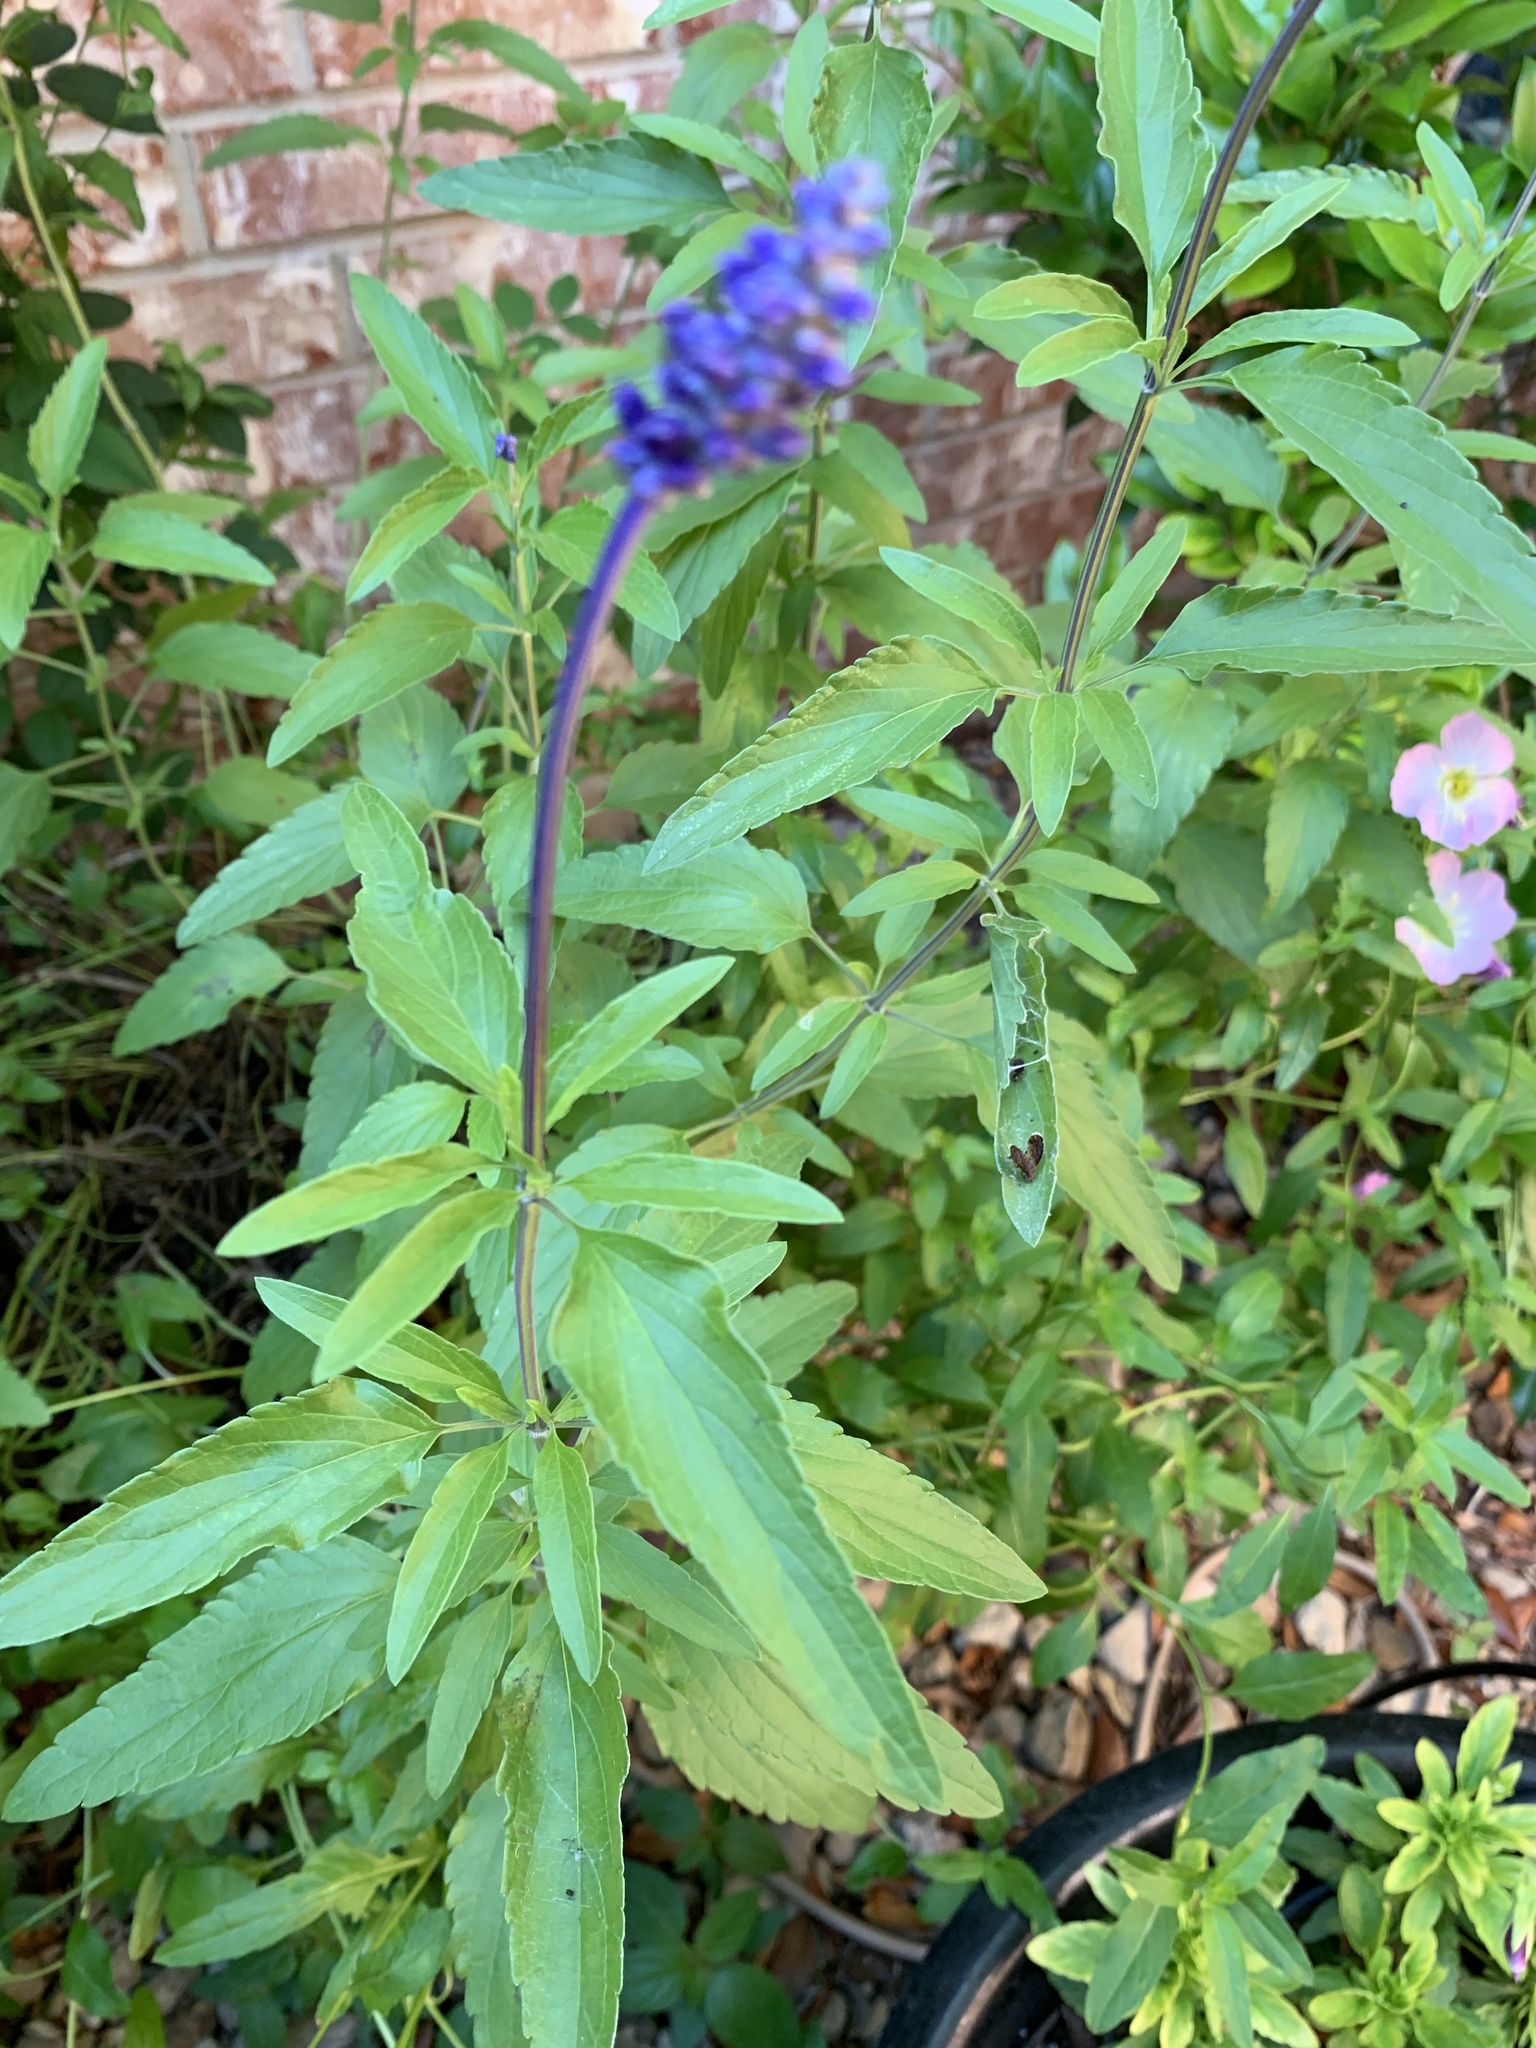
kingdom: Plantae
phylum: Tracheophyta
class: Magnoliopsida
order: Lamiales
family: Lamiaceae
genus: Salvia
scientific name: Salvia farinacea
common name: Mealy sage
